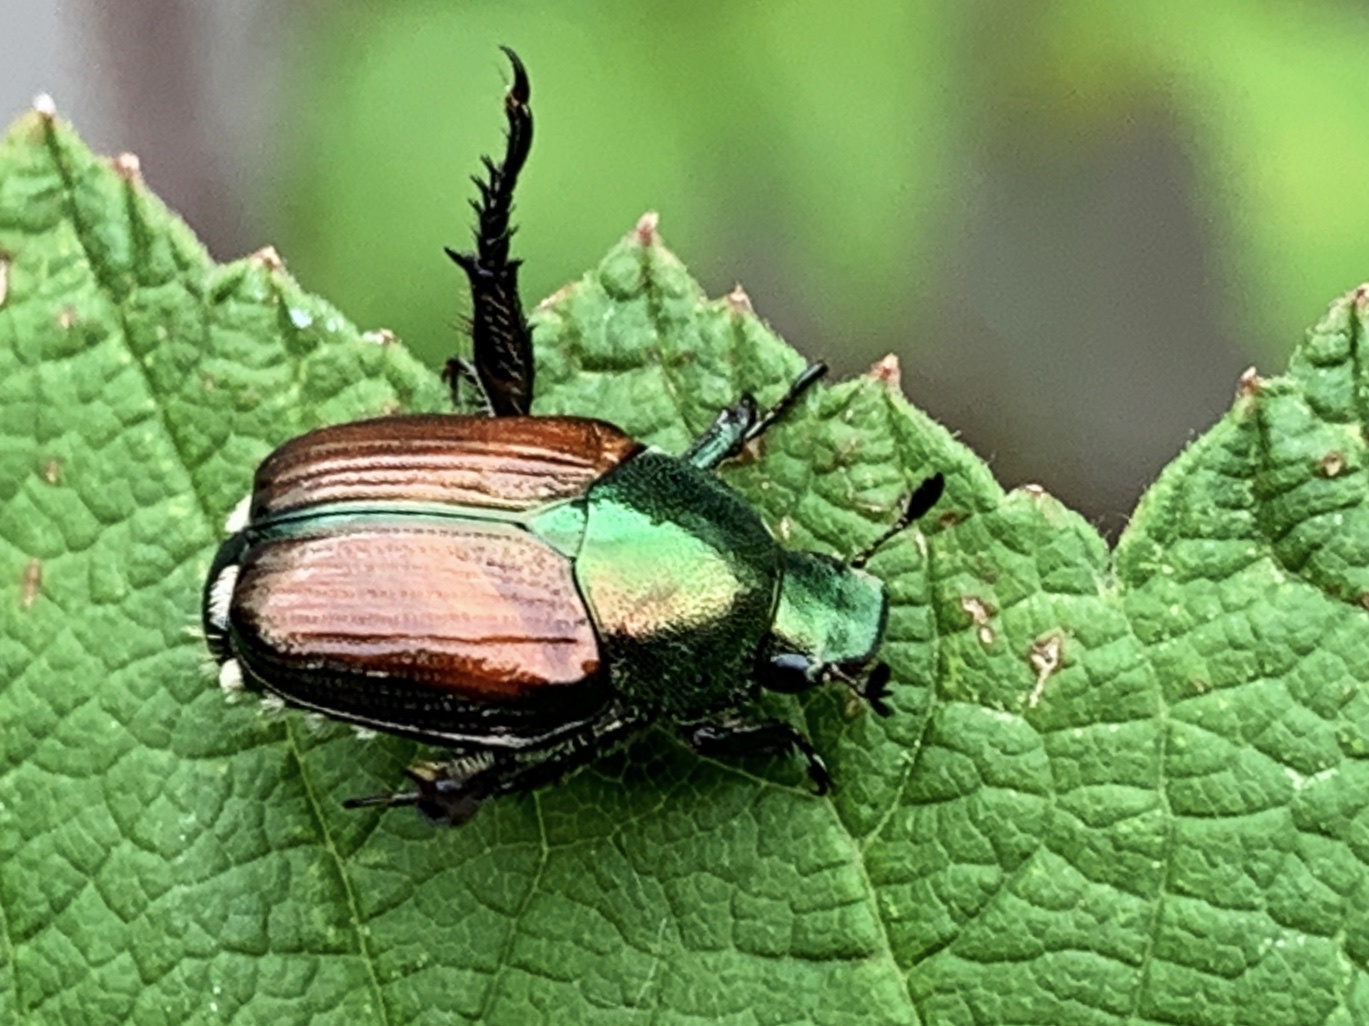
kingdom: Animalia
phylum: Arthropoda
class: Insecta
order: Coleoptera
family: Scarabaeidae
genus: Popillia
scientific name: Popillia japonica
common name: Japanese beetle
